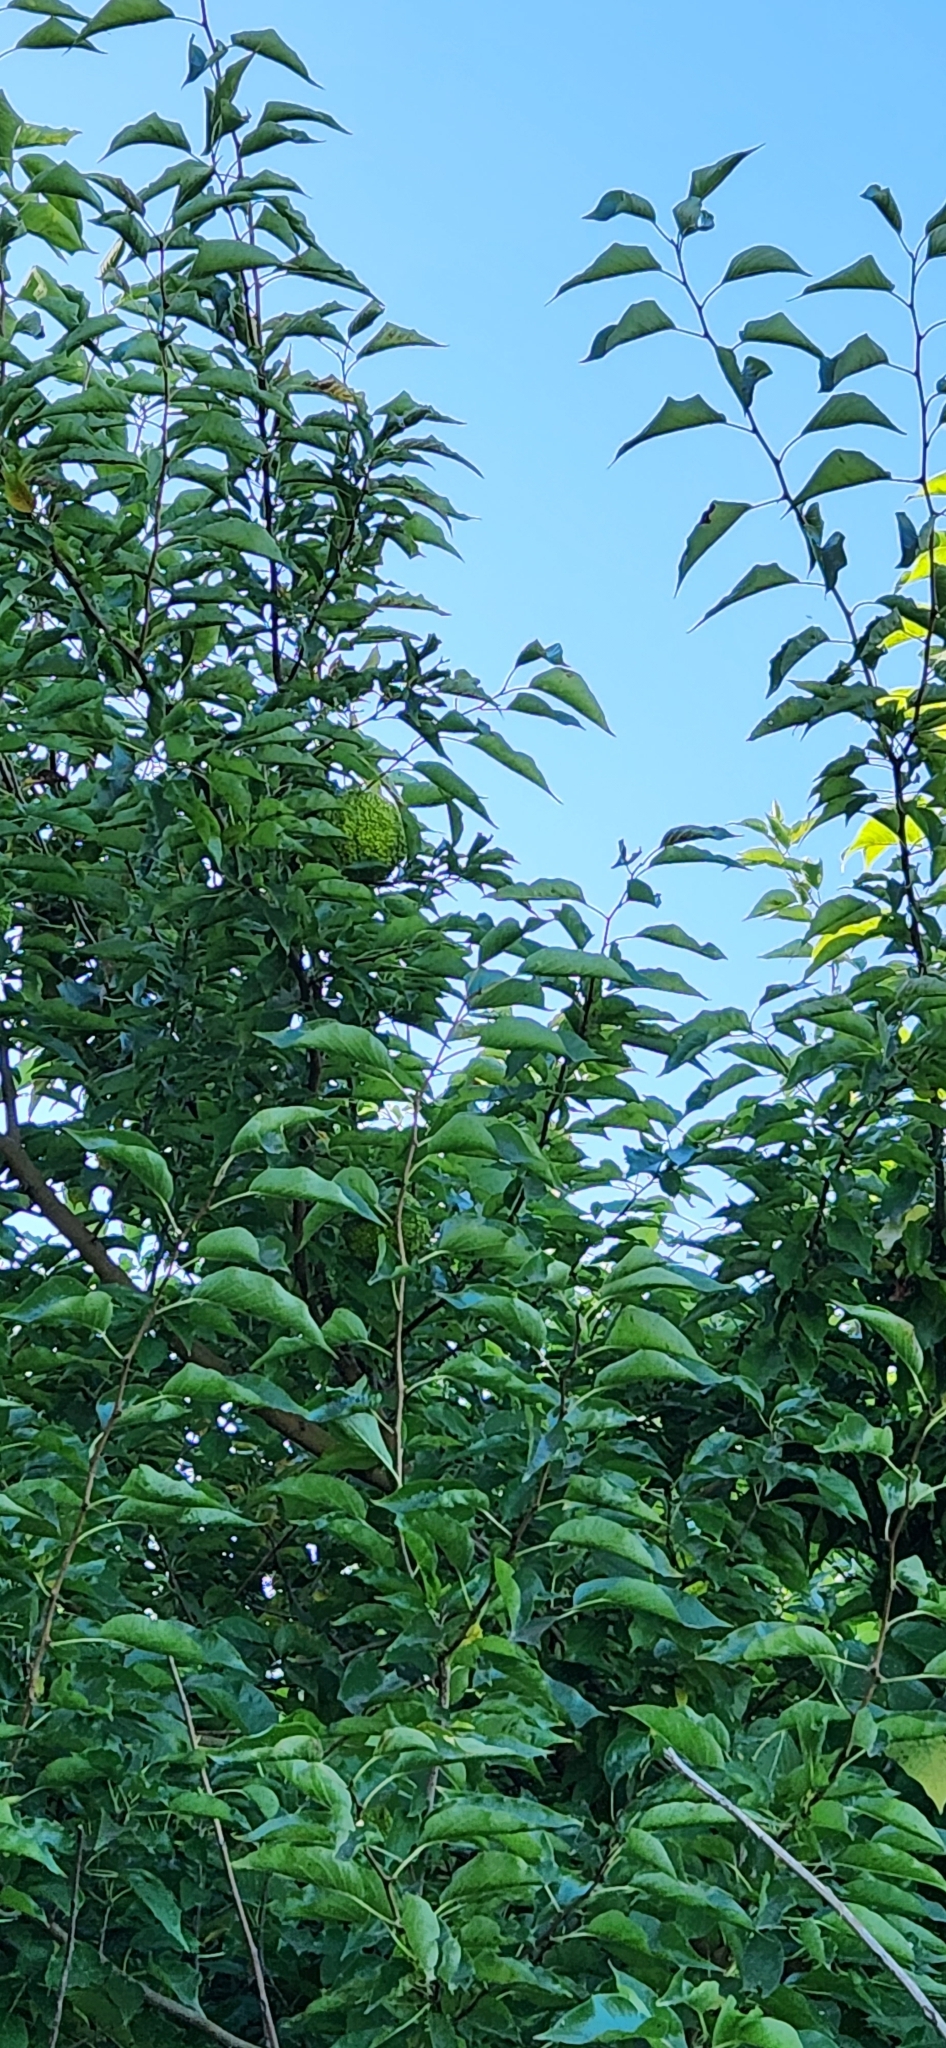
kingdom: Plantae
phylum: Tracheophyta
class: Magnoliopsida
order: Rosales
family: Moraceae
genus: Maclura
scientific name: Maclura pomifera
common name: Osage-orange
